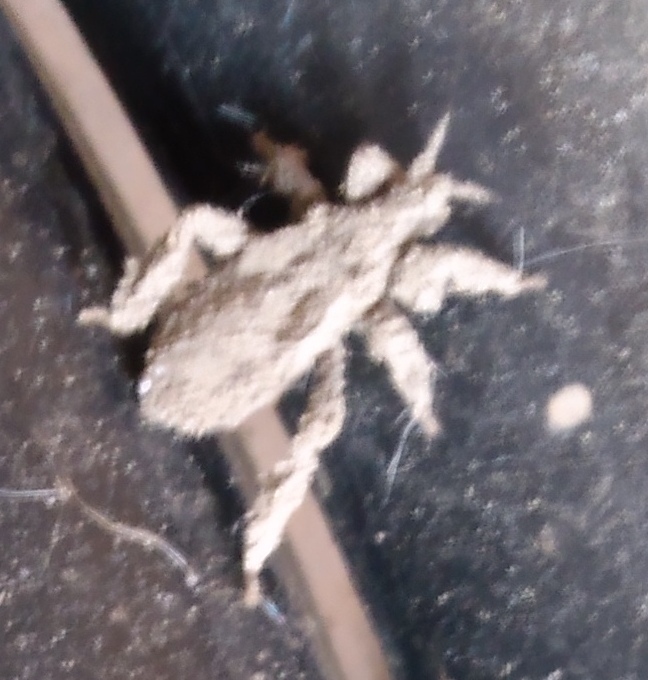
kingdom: Animalia
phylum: Arthropoda
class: Insecta
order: Hemiptera
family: Reduviidae
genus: Reduvius
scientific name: Reduvius personatus
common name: Masked hunter
